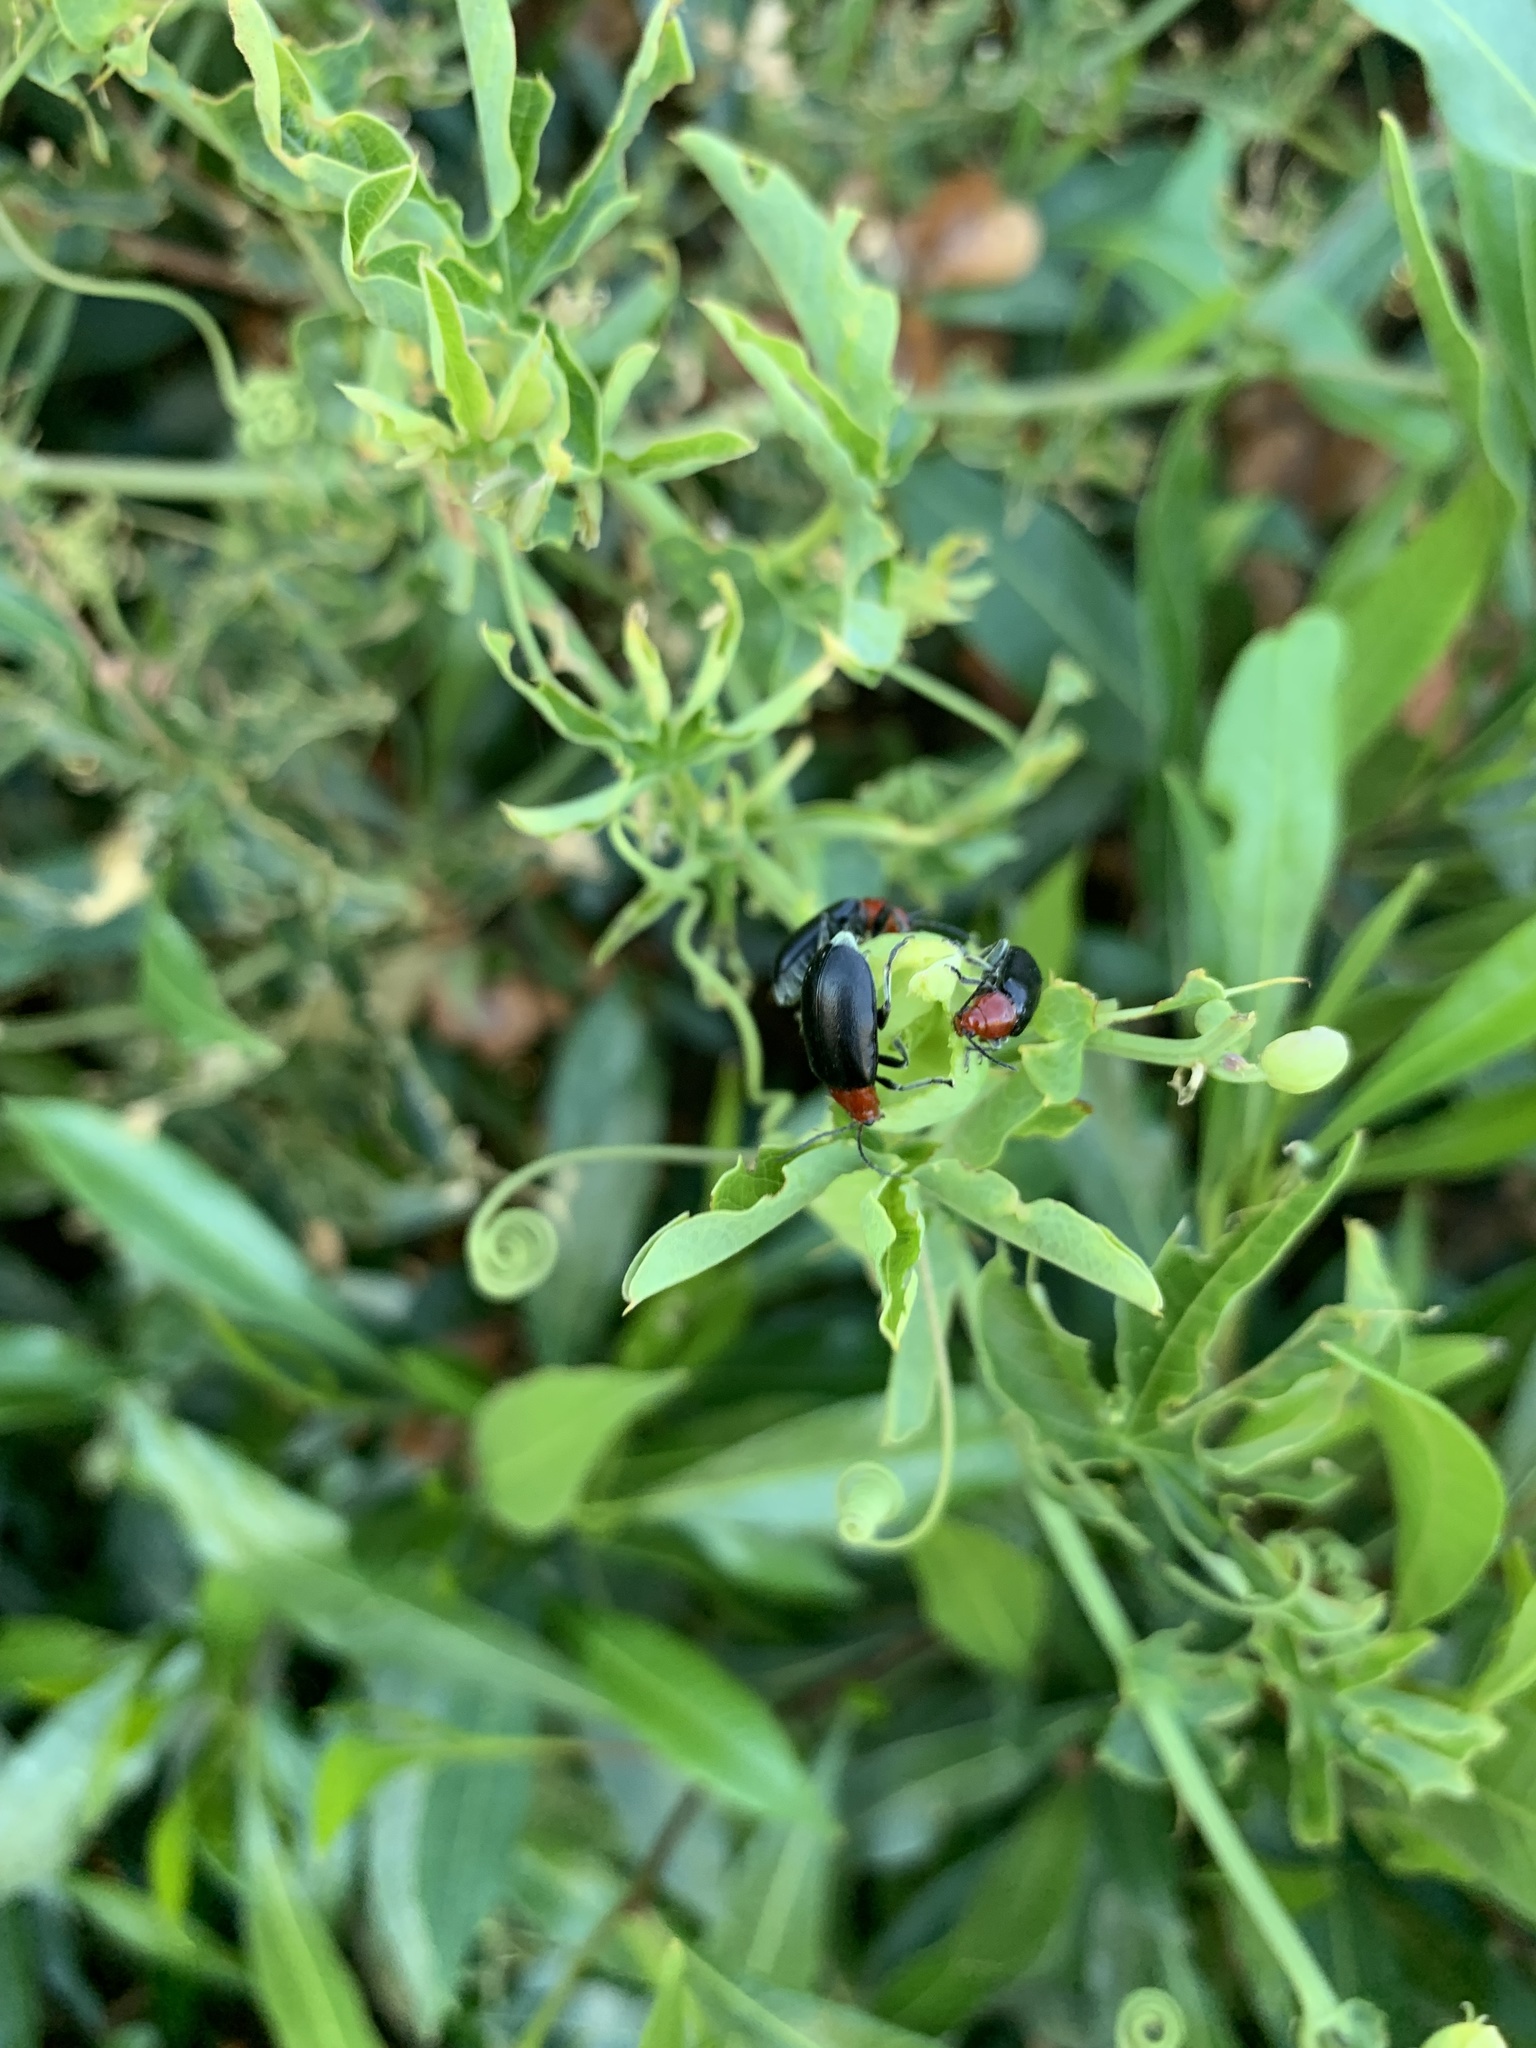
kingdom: Animalia
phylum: Arthropoda
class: Insecta
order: Coleoptera
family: Chrysomelidae
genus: Cacoscelis
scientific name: Cacoscelis
